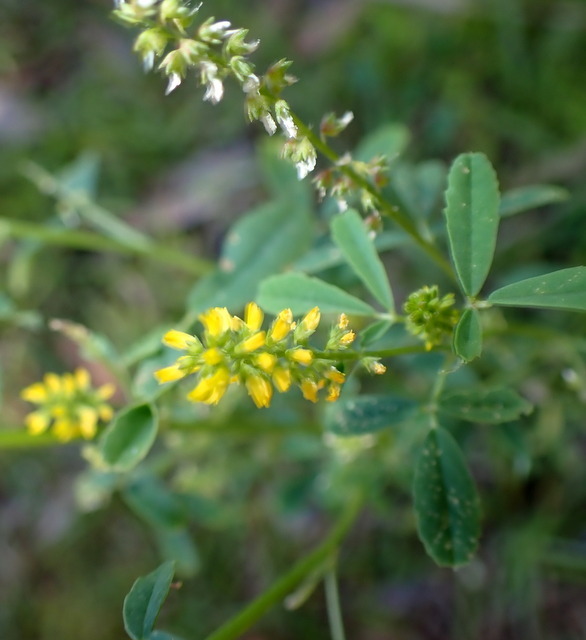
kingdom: Plantae
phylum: Tracheophyta
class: Magnoliopsida
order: Fabales
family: Fabaceae
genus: Melilotus
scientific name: Melilotus indicus
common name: Small melilot
